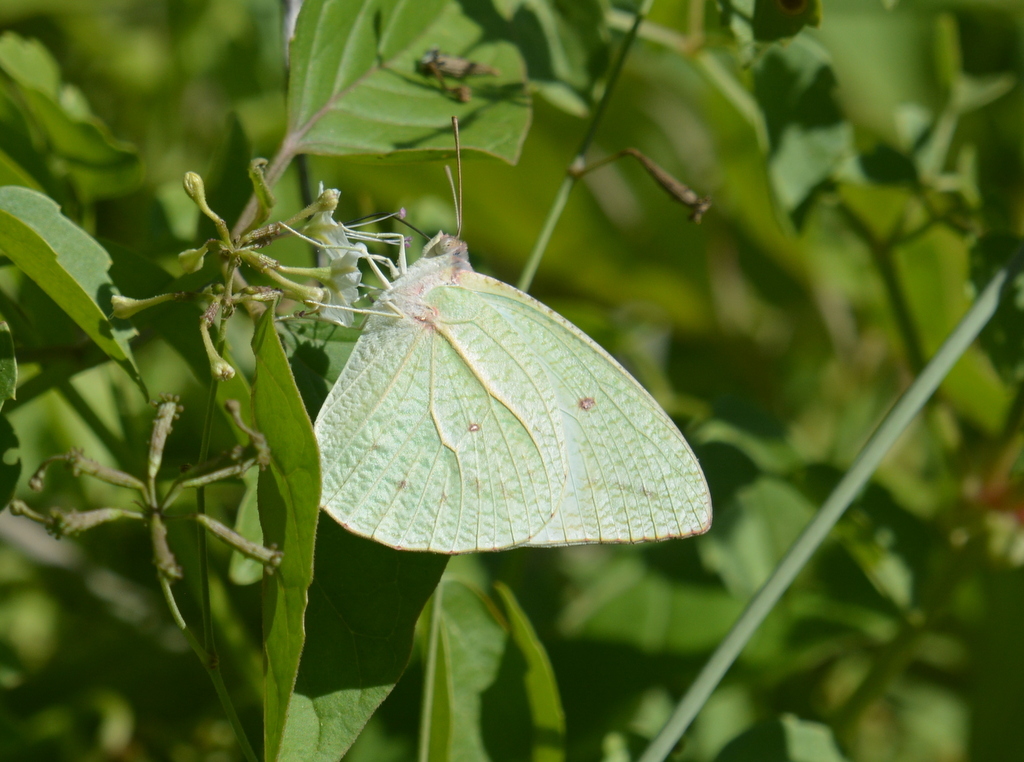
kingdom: Animalia
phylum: Arthropoda
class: Insecta
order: Lepidoptera
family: Pieridae
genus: Catopsilia
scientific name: Catopsilia florella
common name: African migrant
